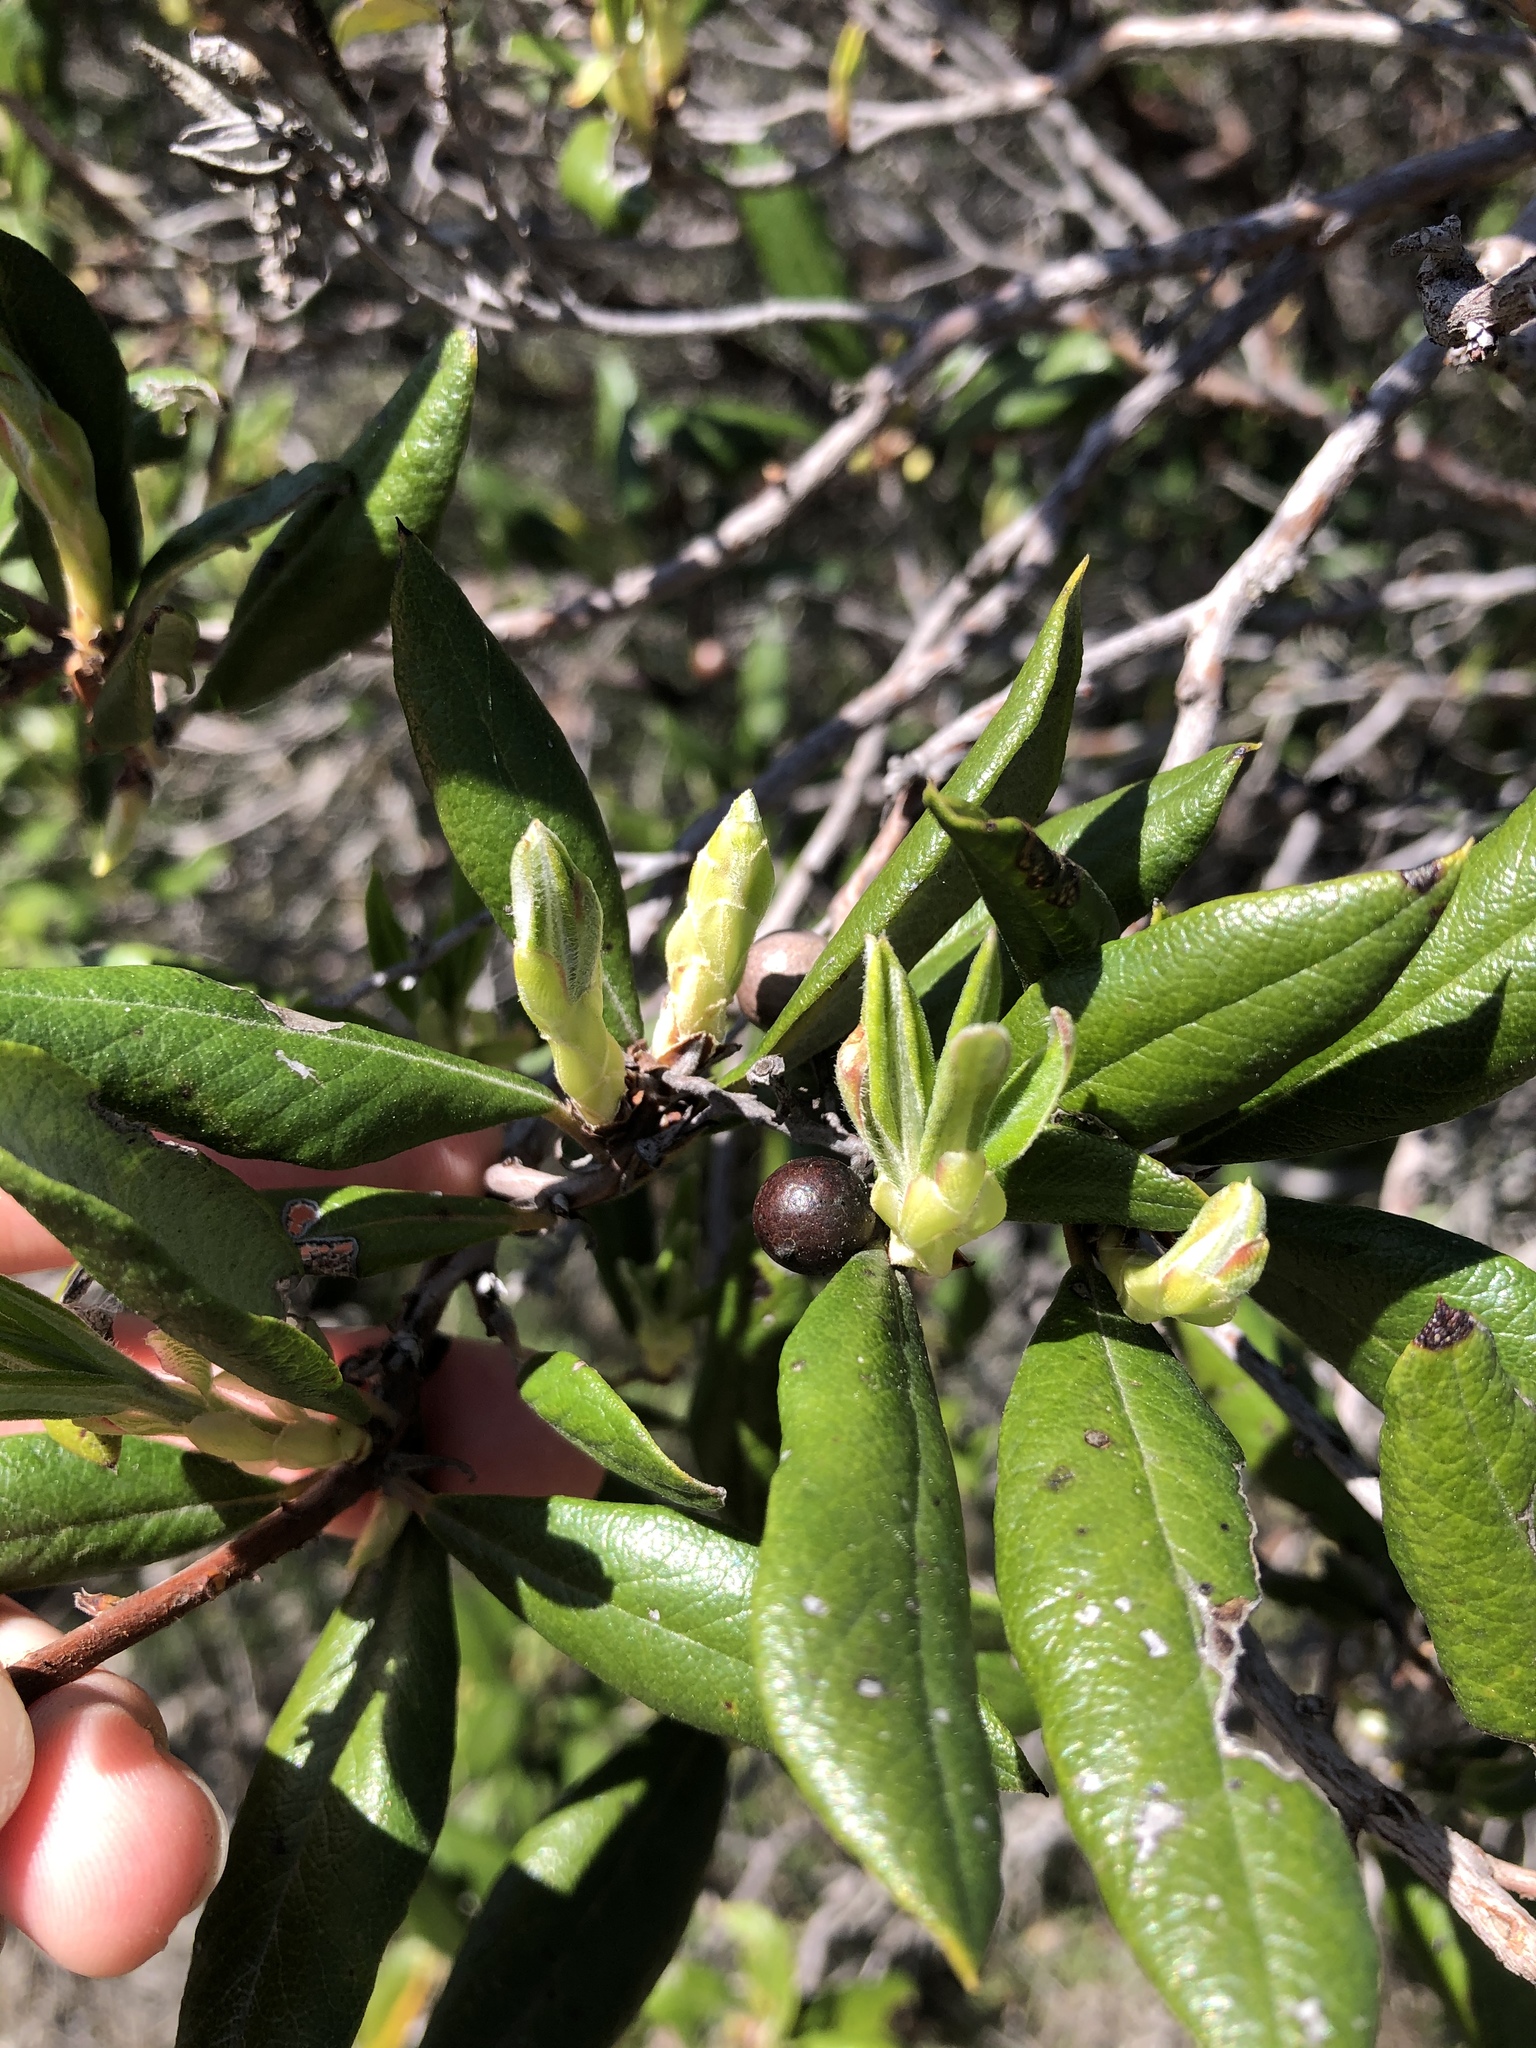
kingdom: Plantae
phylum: Tracheophyta
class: Magnoliopsida
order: Ericales
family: Ericaceae
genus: Arctostaphylos
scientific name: Arctostaphylos bicolor
